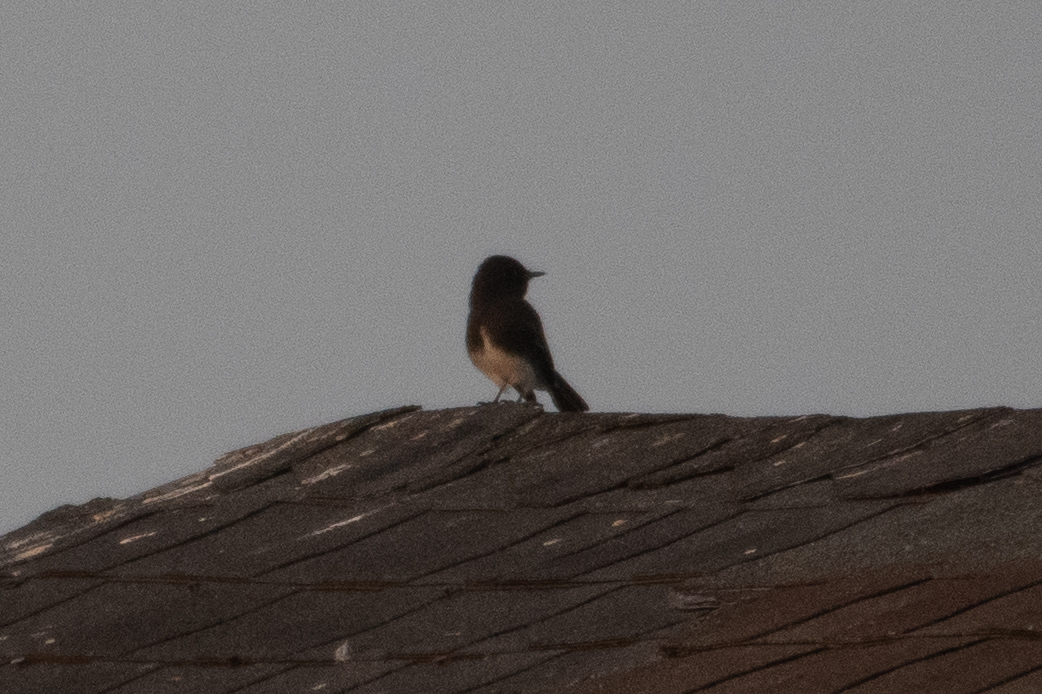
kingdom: Animalia
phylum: Chordata
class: Aves
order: Passeriformes
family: Tyrannidae
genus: Sayornis
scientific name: Sayornis nigricans
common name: Black phoebe
